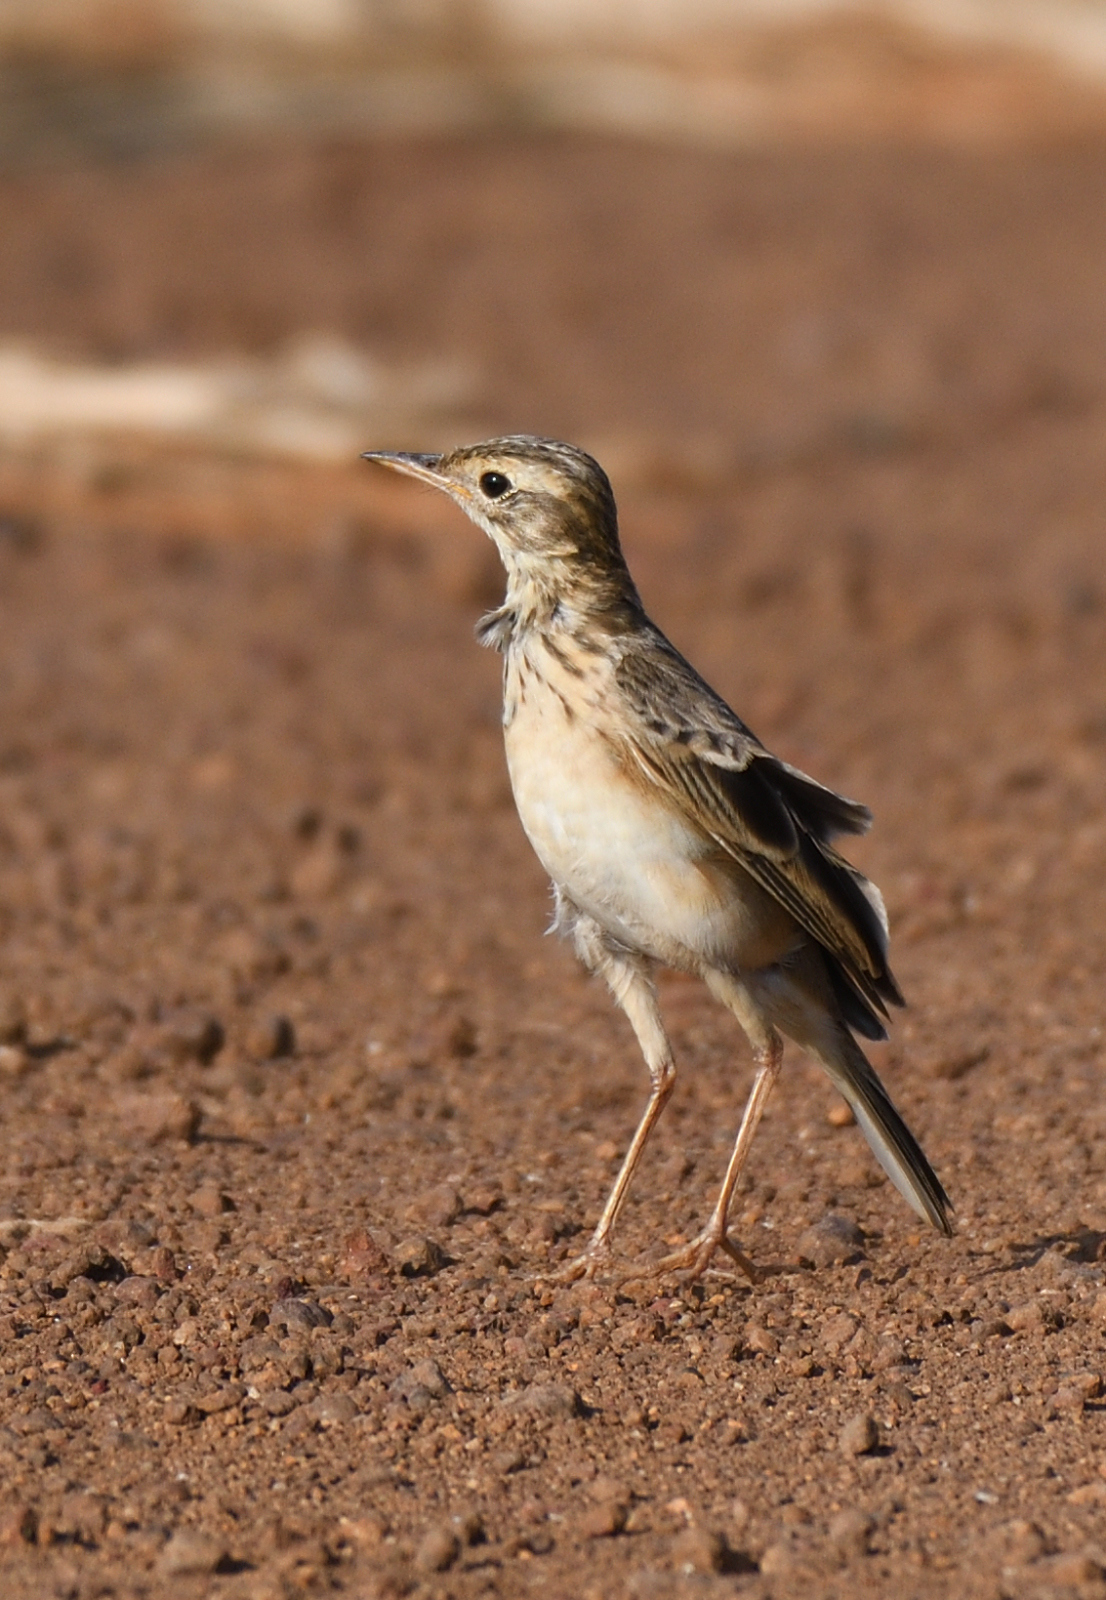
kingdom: Animalia
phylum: Chordata
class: Aves
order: Passeriformes
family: Motacillidae
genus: Anthus
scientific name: Anthus rufulus
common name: Paddyfield pipit
